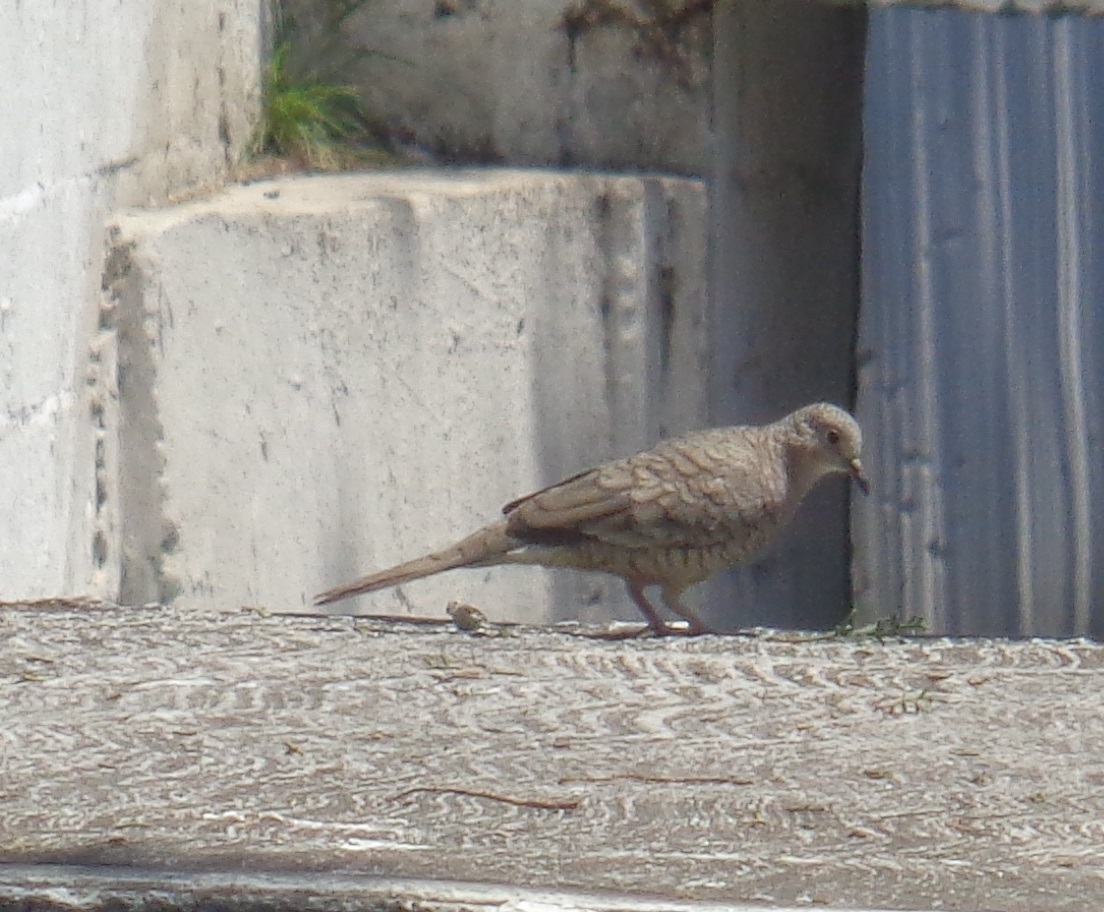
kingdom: Animalia
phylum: Chordata
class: Aves
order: Columbiformes
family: Columbidae
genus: Columbina
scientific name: Columbina inca
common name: Inca dove
